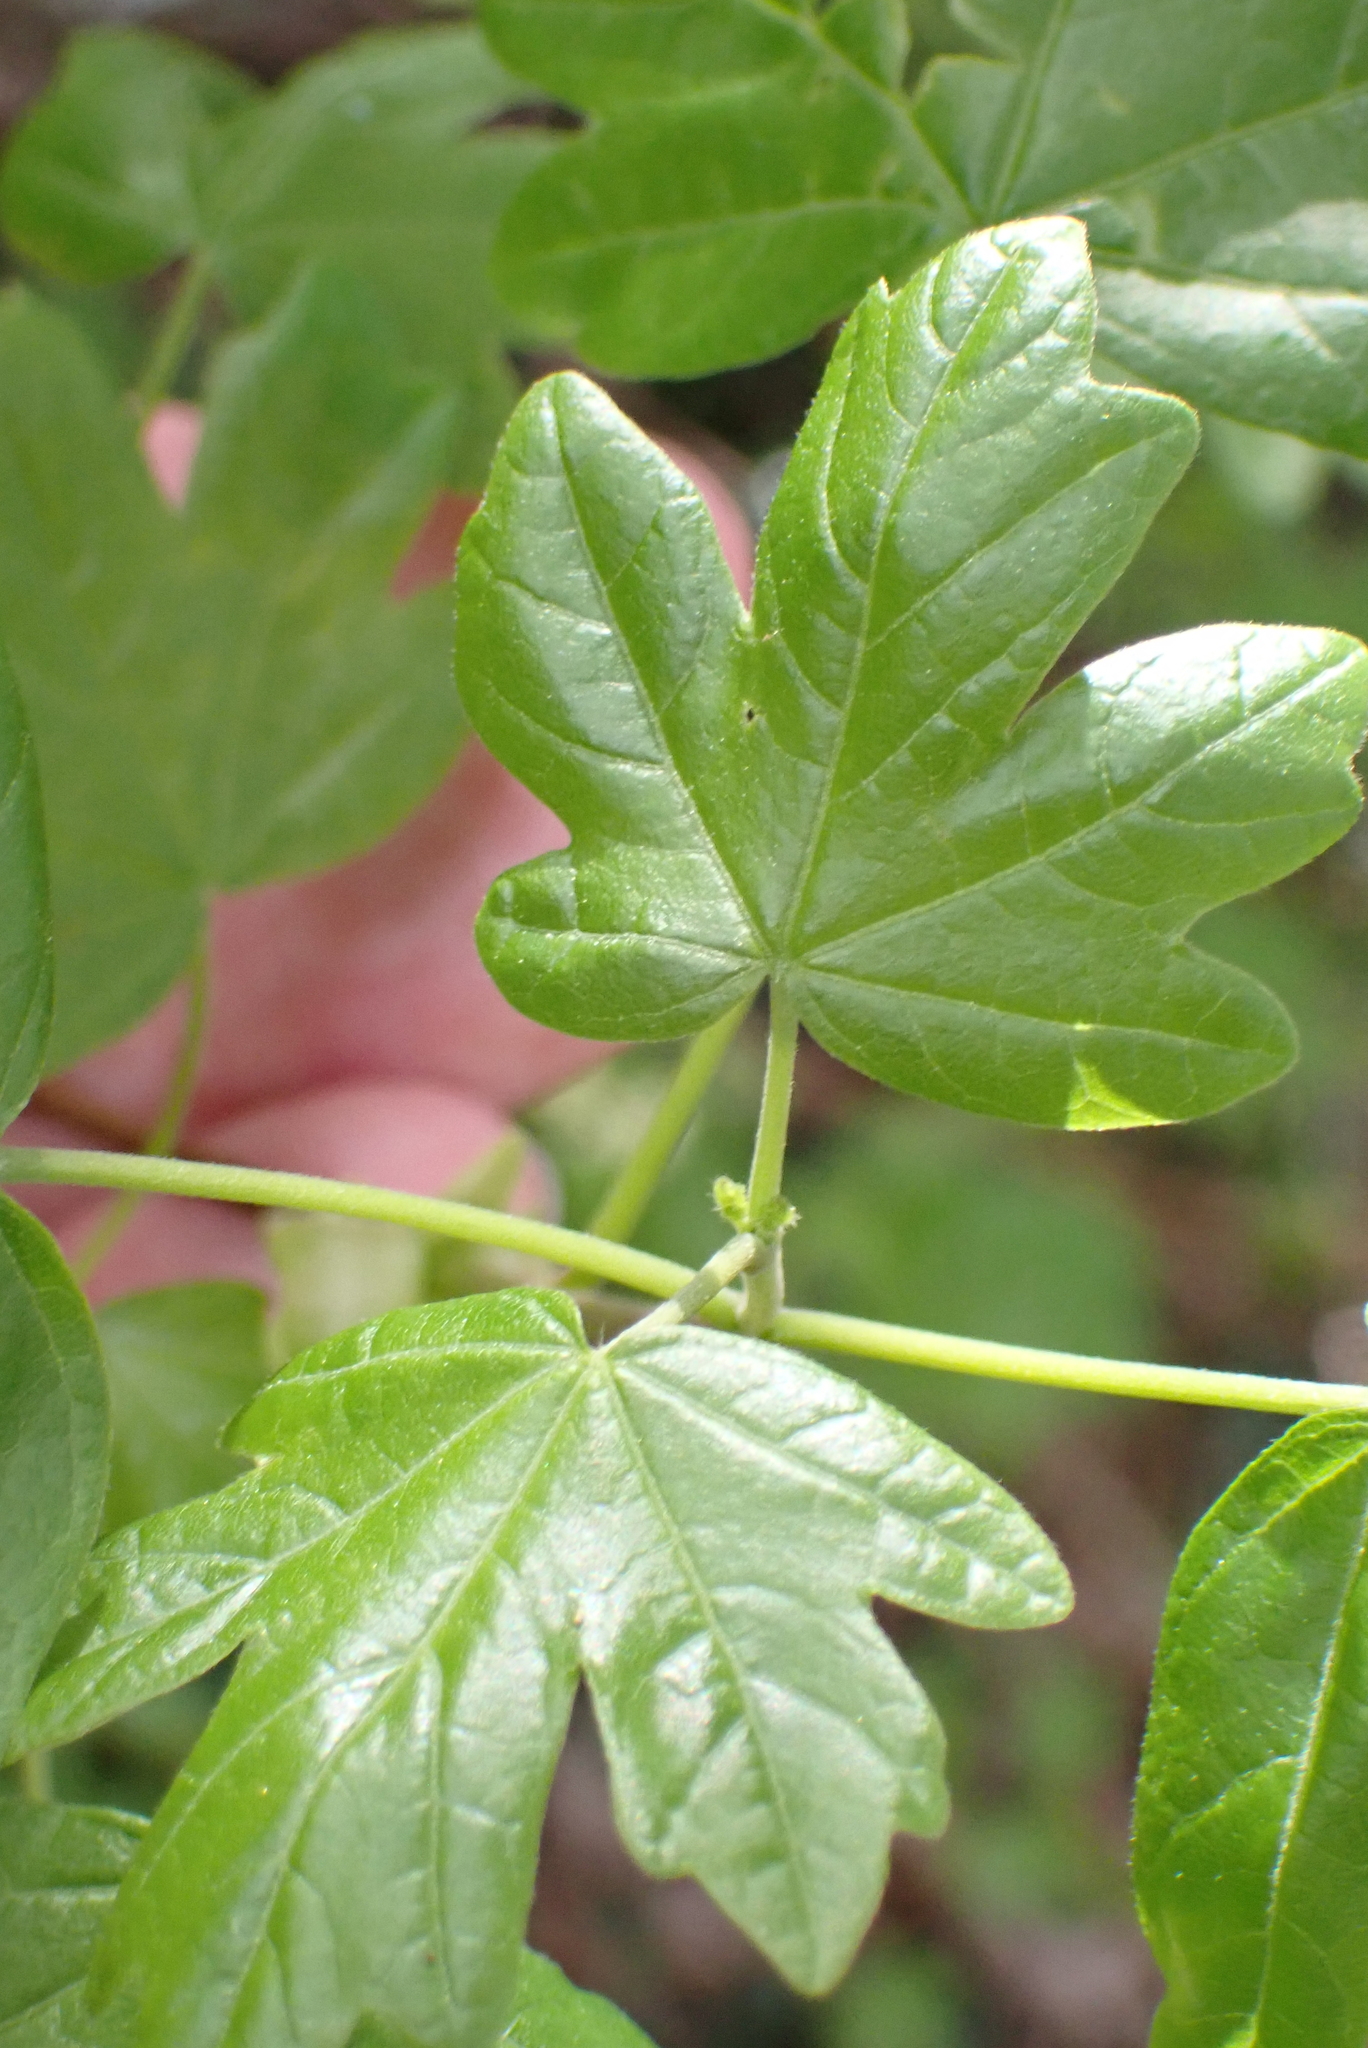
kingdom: Plantae
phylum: Tracheophyta
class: Magnoliopsida
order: Sapindales
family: Sapindaceae
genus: Acer
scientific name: Acer campestre
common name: Field maple
